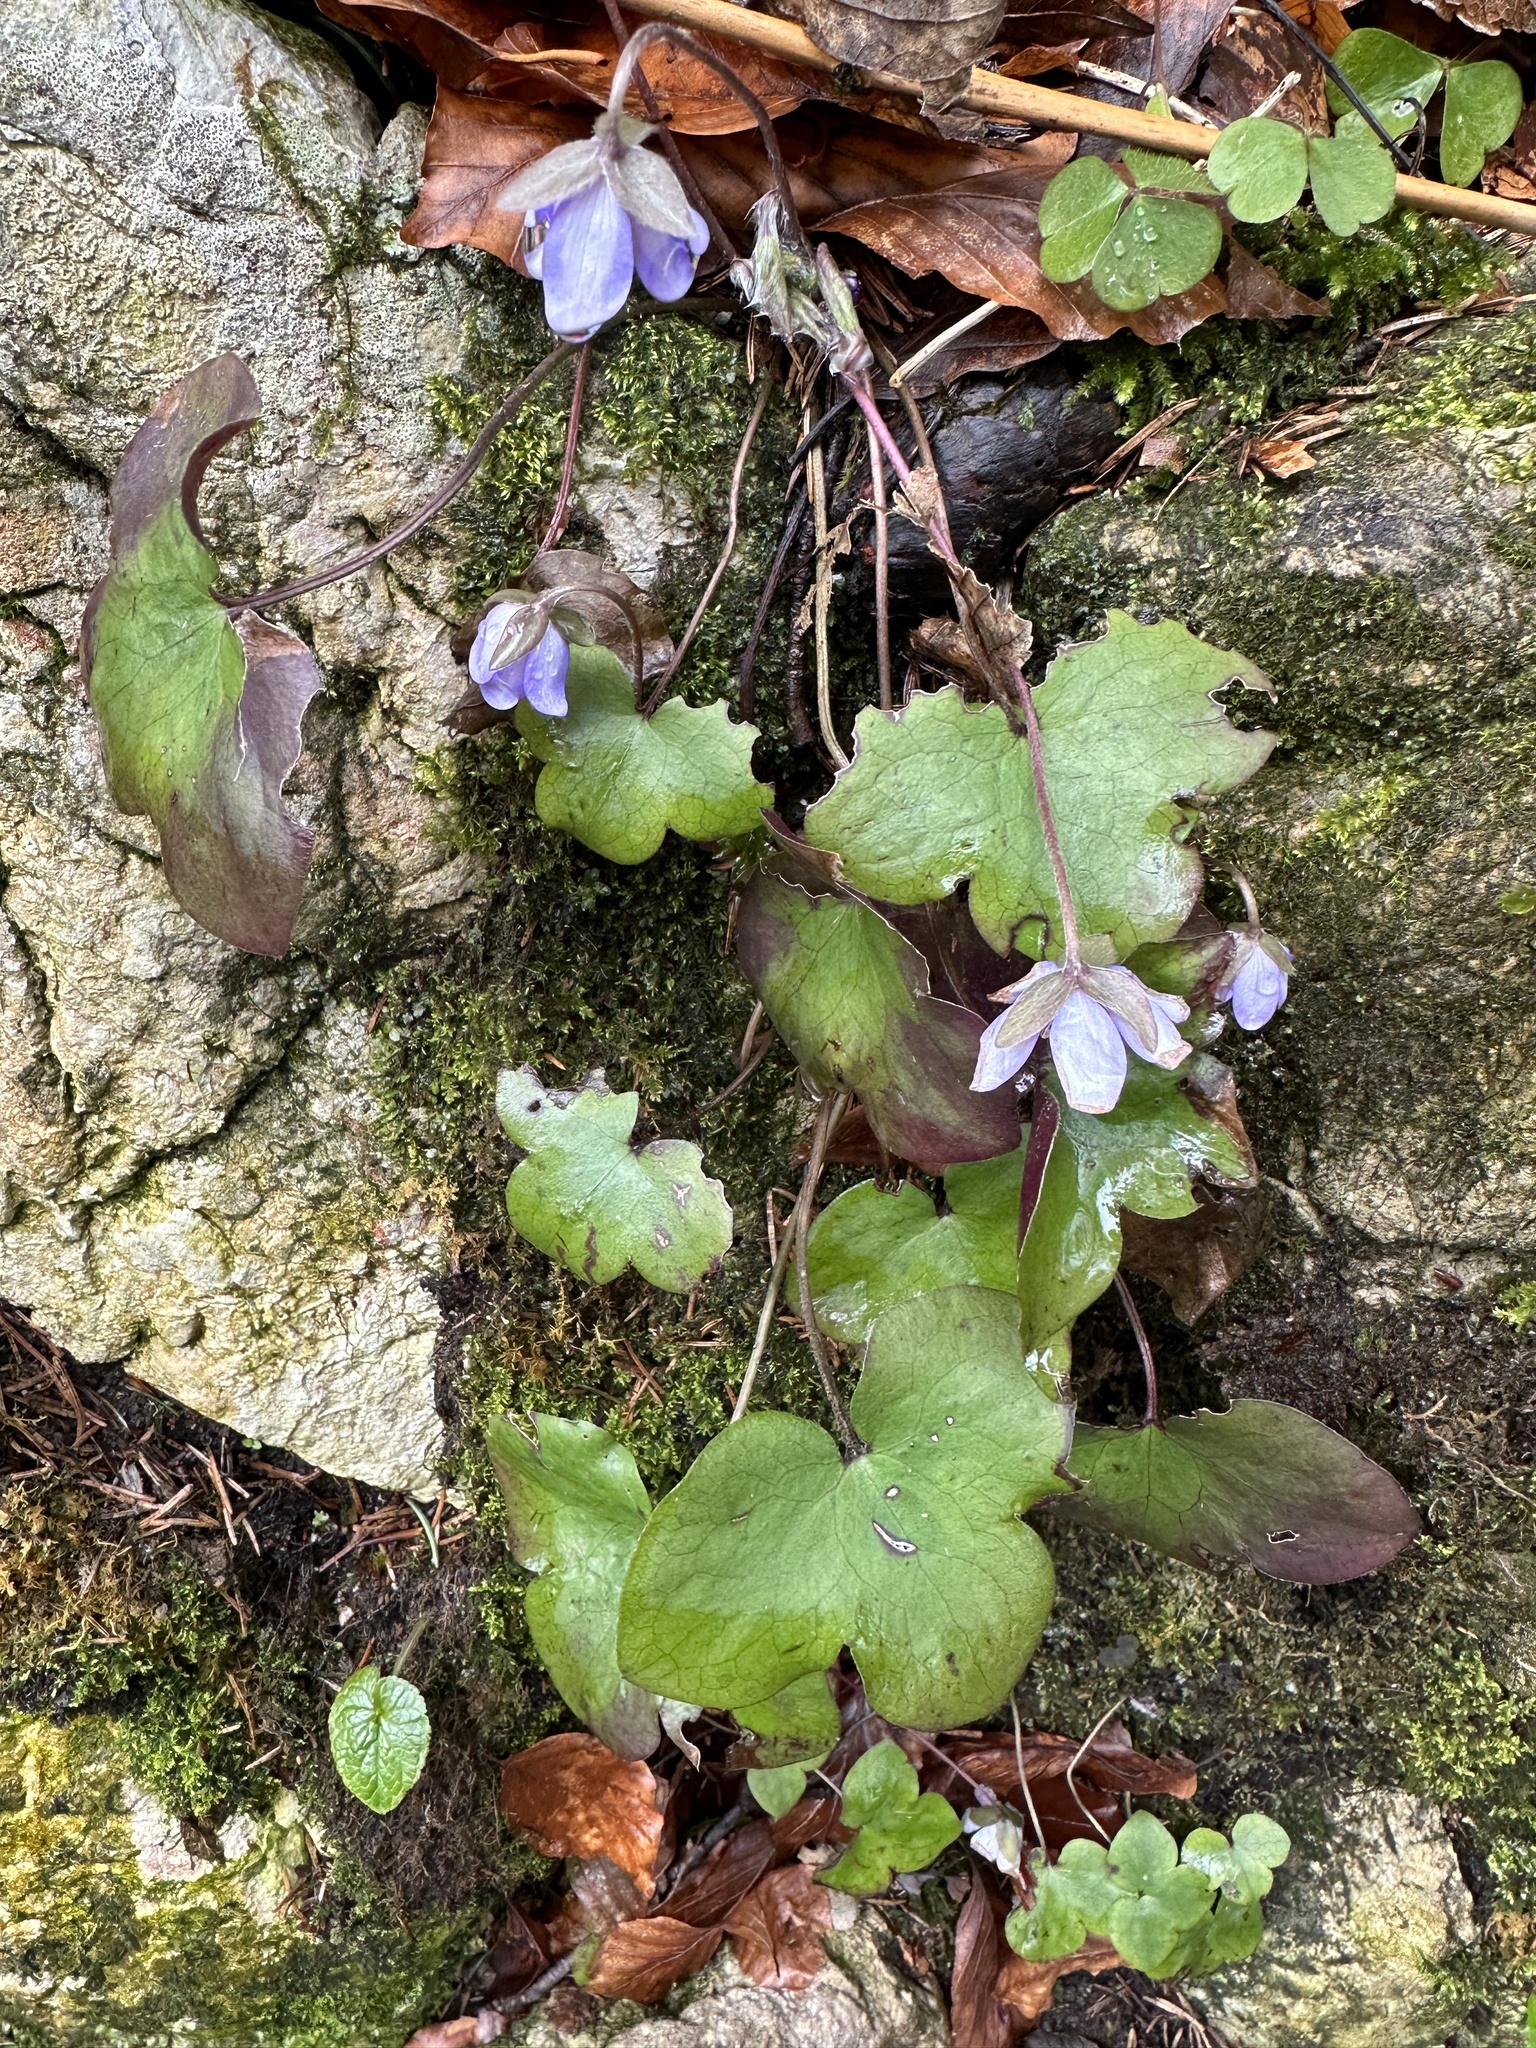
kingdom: Plantae
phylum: Tracheophyta
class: Magnoliopsida
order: Ranunculales
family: Ranunculaceae
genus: Hepatica
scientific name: Hepatica nobilis
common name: Liverleaf
